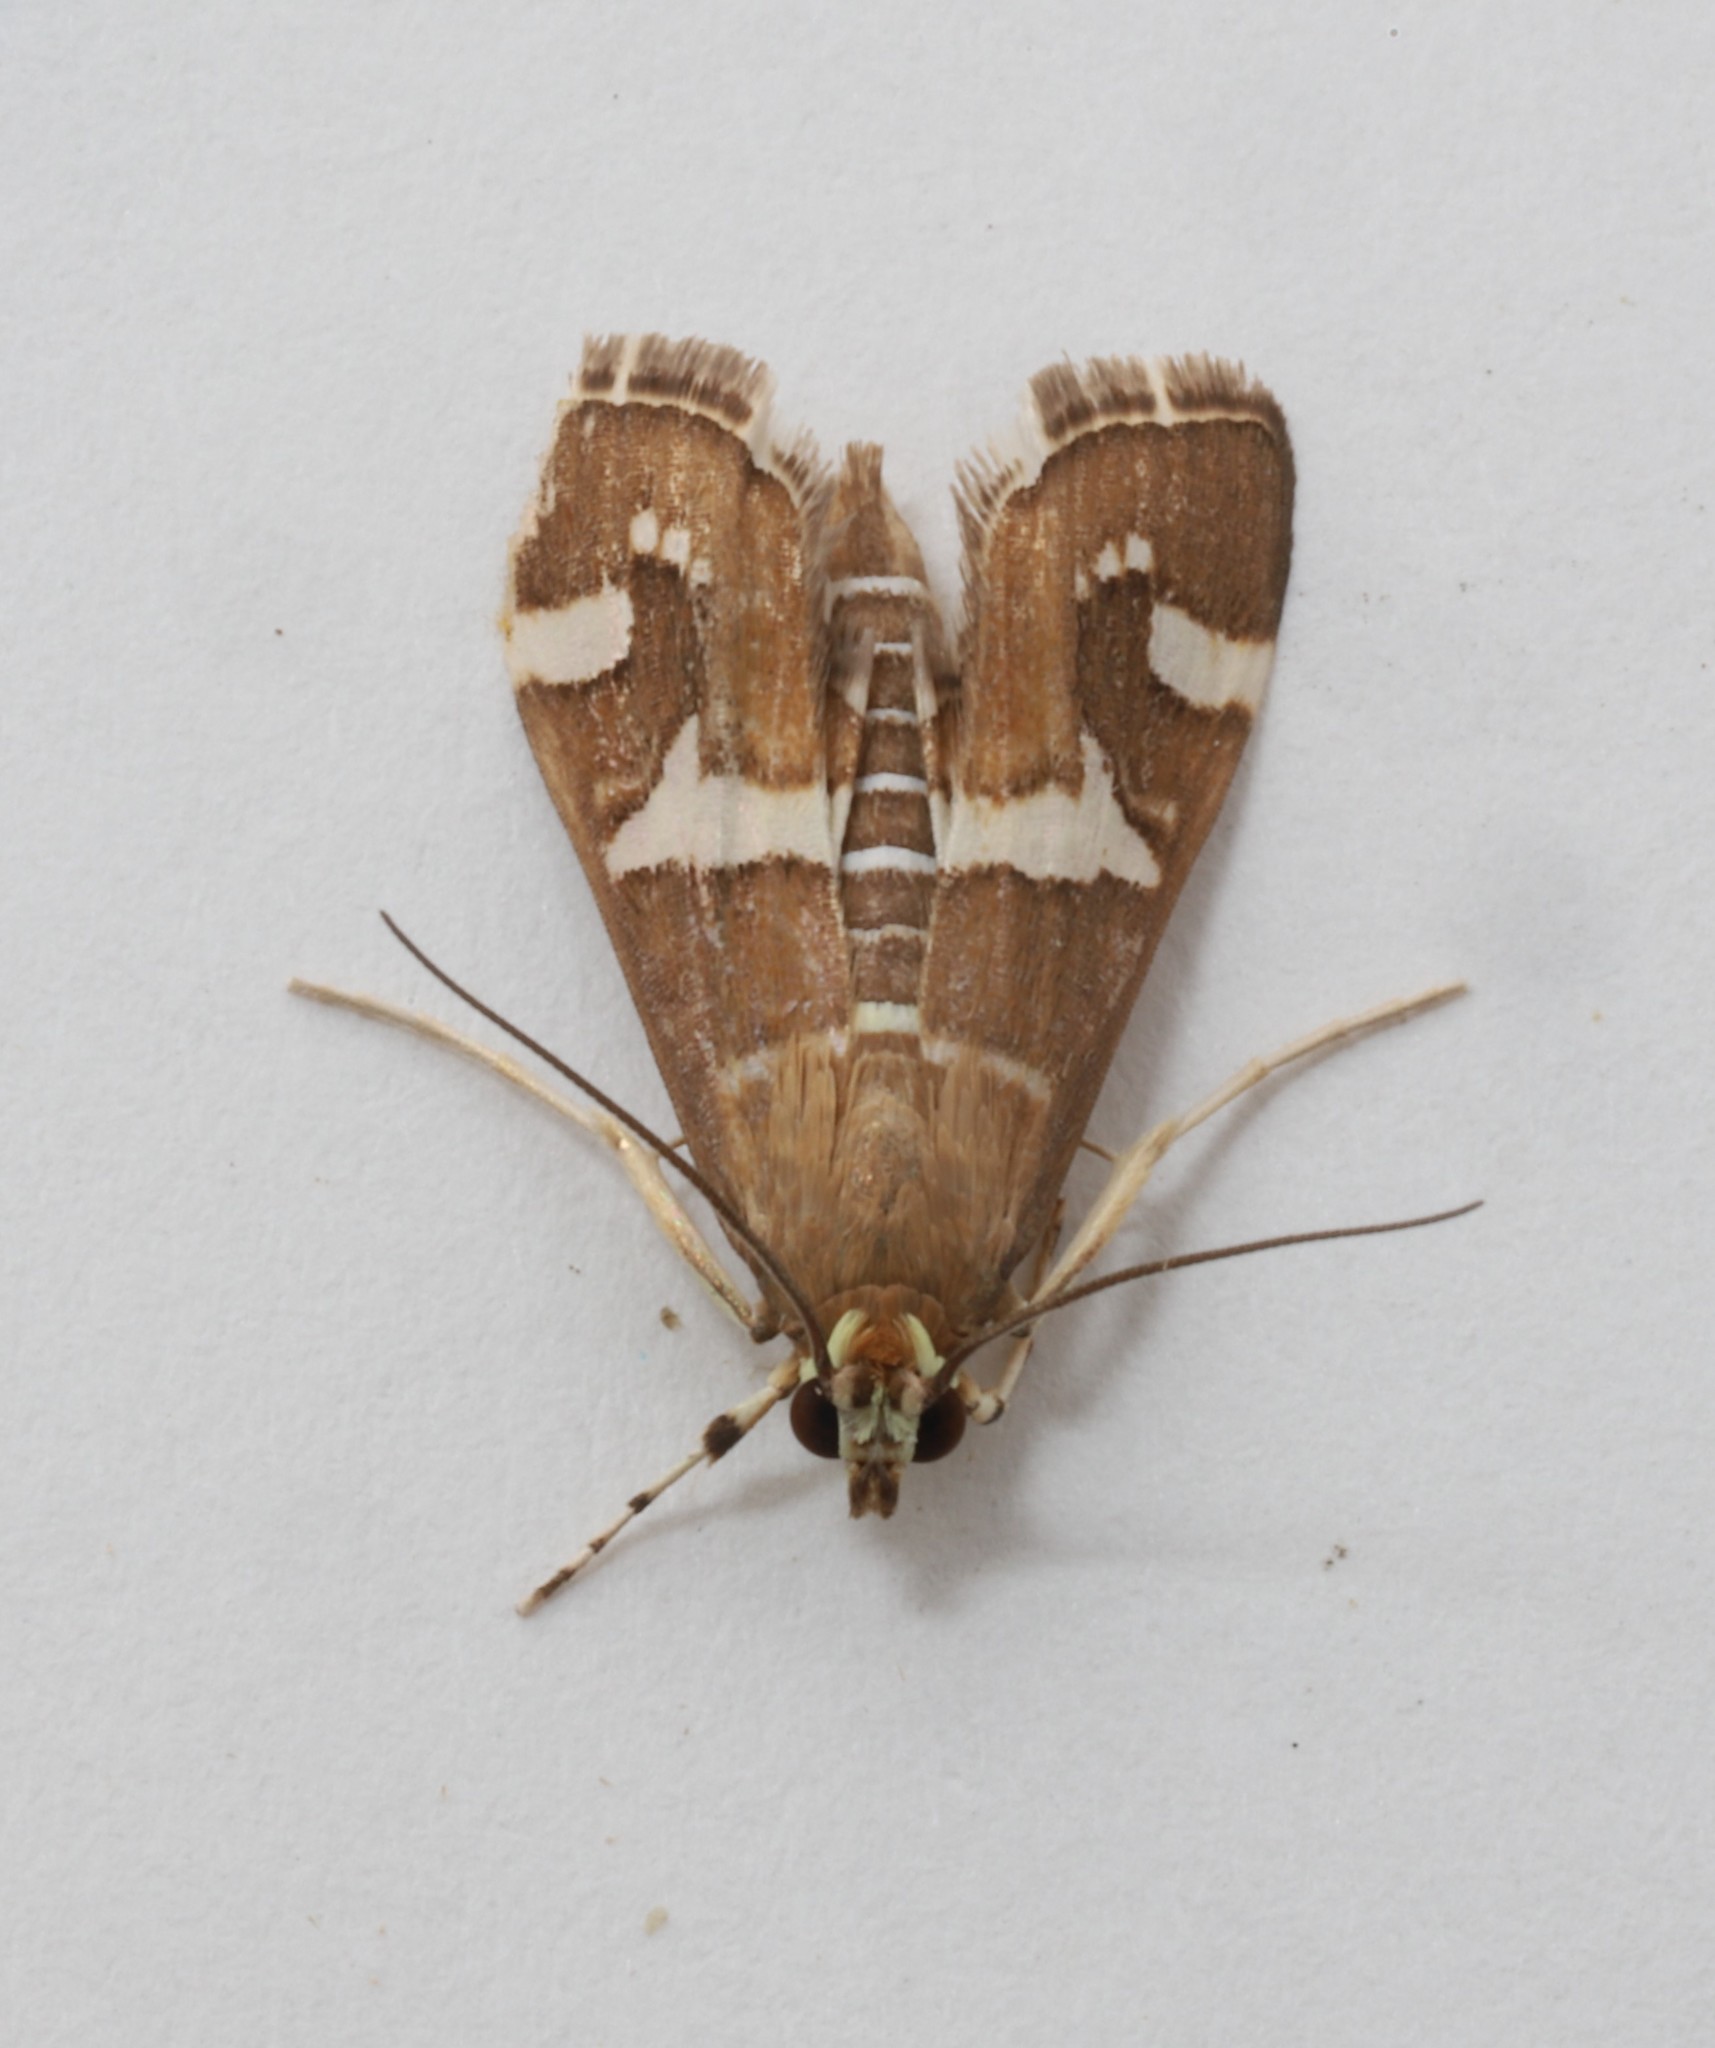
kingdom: Animalia
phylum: Arthropoda
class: Insecta
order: Lepidoptera
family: Crambidae
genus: Spoladea
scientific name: Spoladea recurvalis
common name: Beet webworm moth
